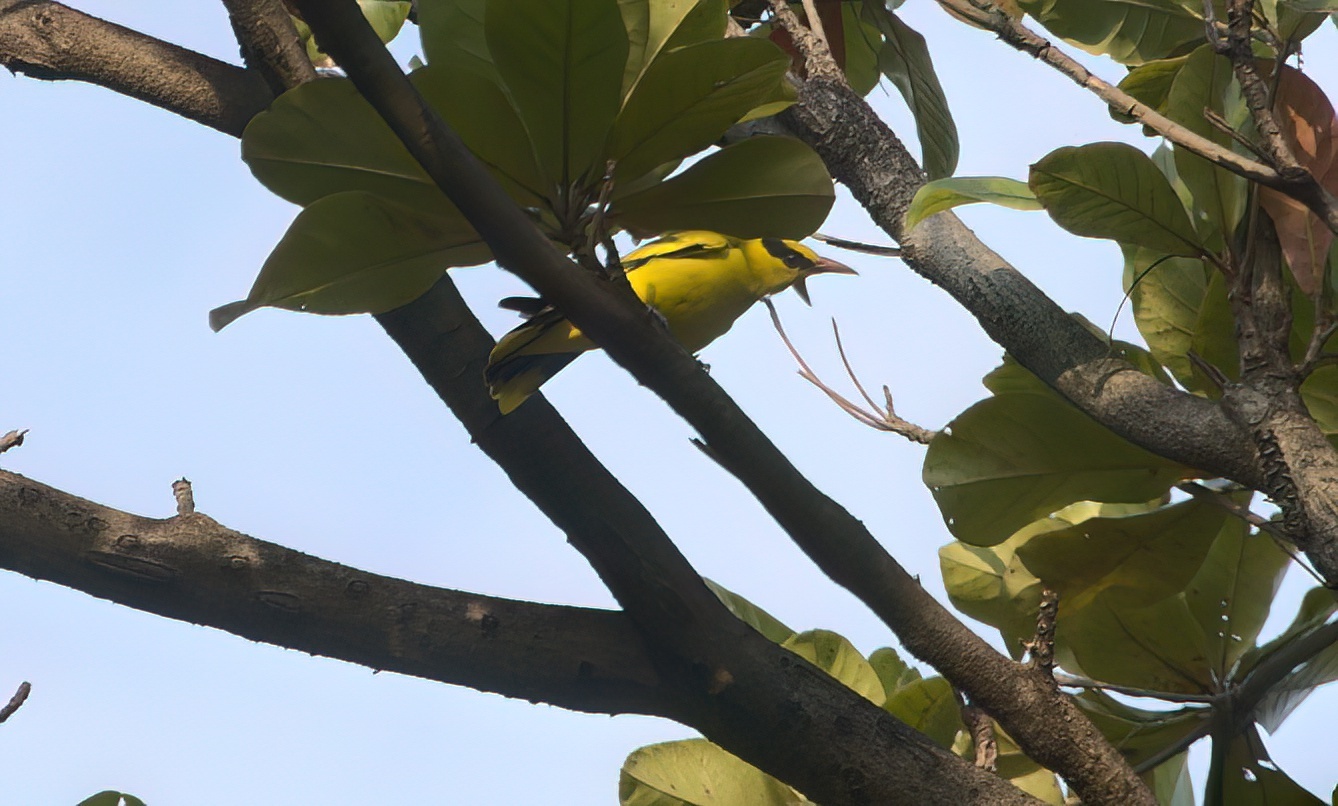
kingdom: Animalia
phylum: Chordata
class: Aves
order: Passeriformes
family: Oriolidae
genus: Oriolus
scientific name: Oriolus chinensis
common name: Black-naped oriole
